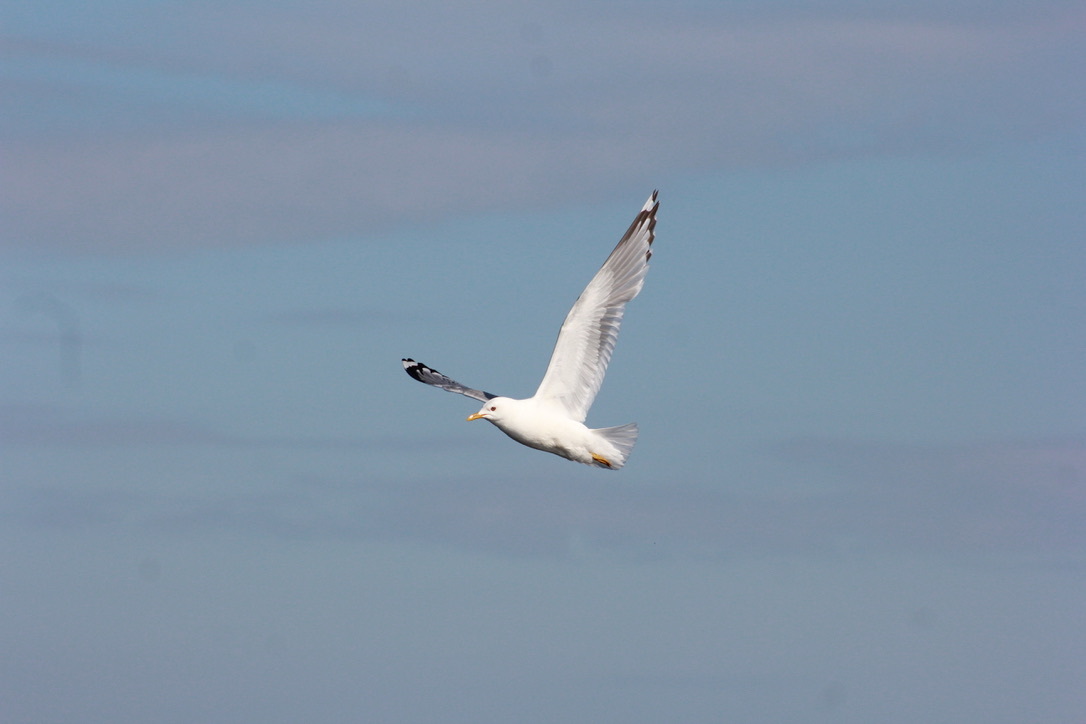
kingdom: Animalia
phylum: Chordata
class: Aves
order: Charadriiformes
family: Laridae
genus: Larus
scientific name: Larus brachyrhynchus
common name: Short-billed gull
